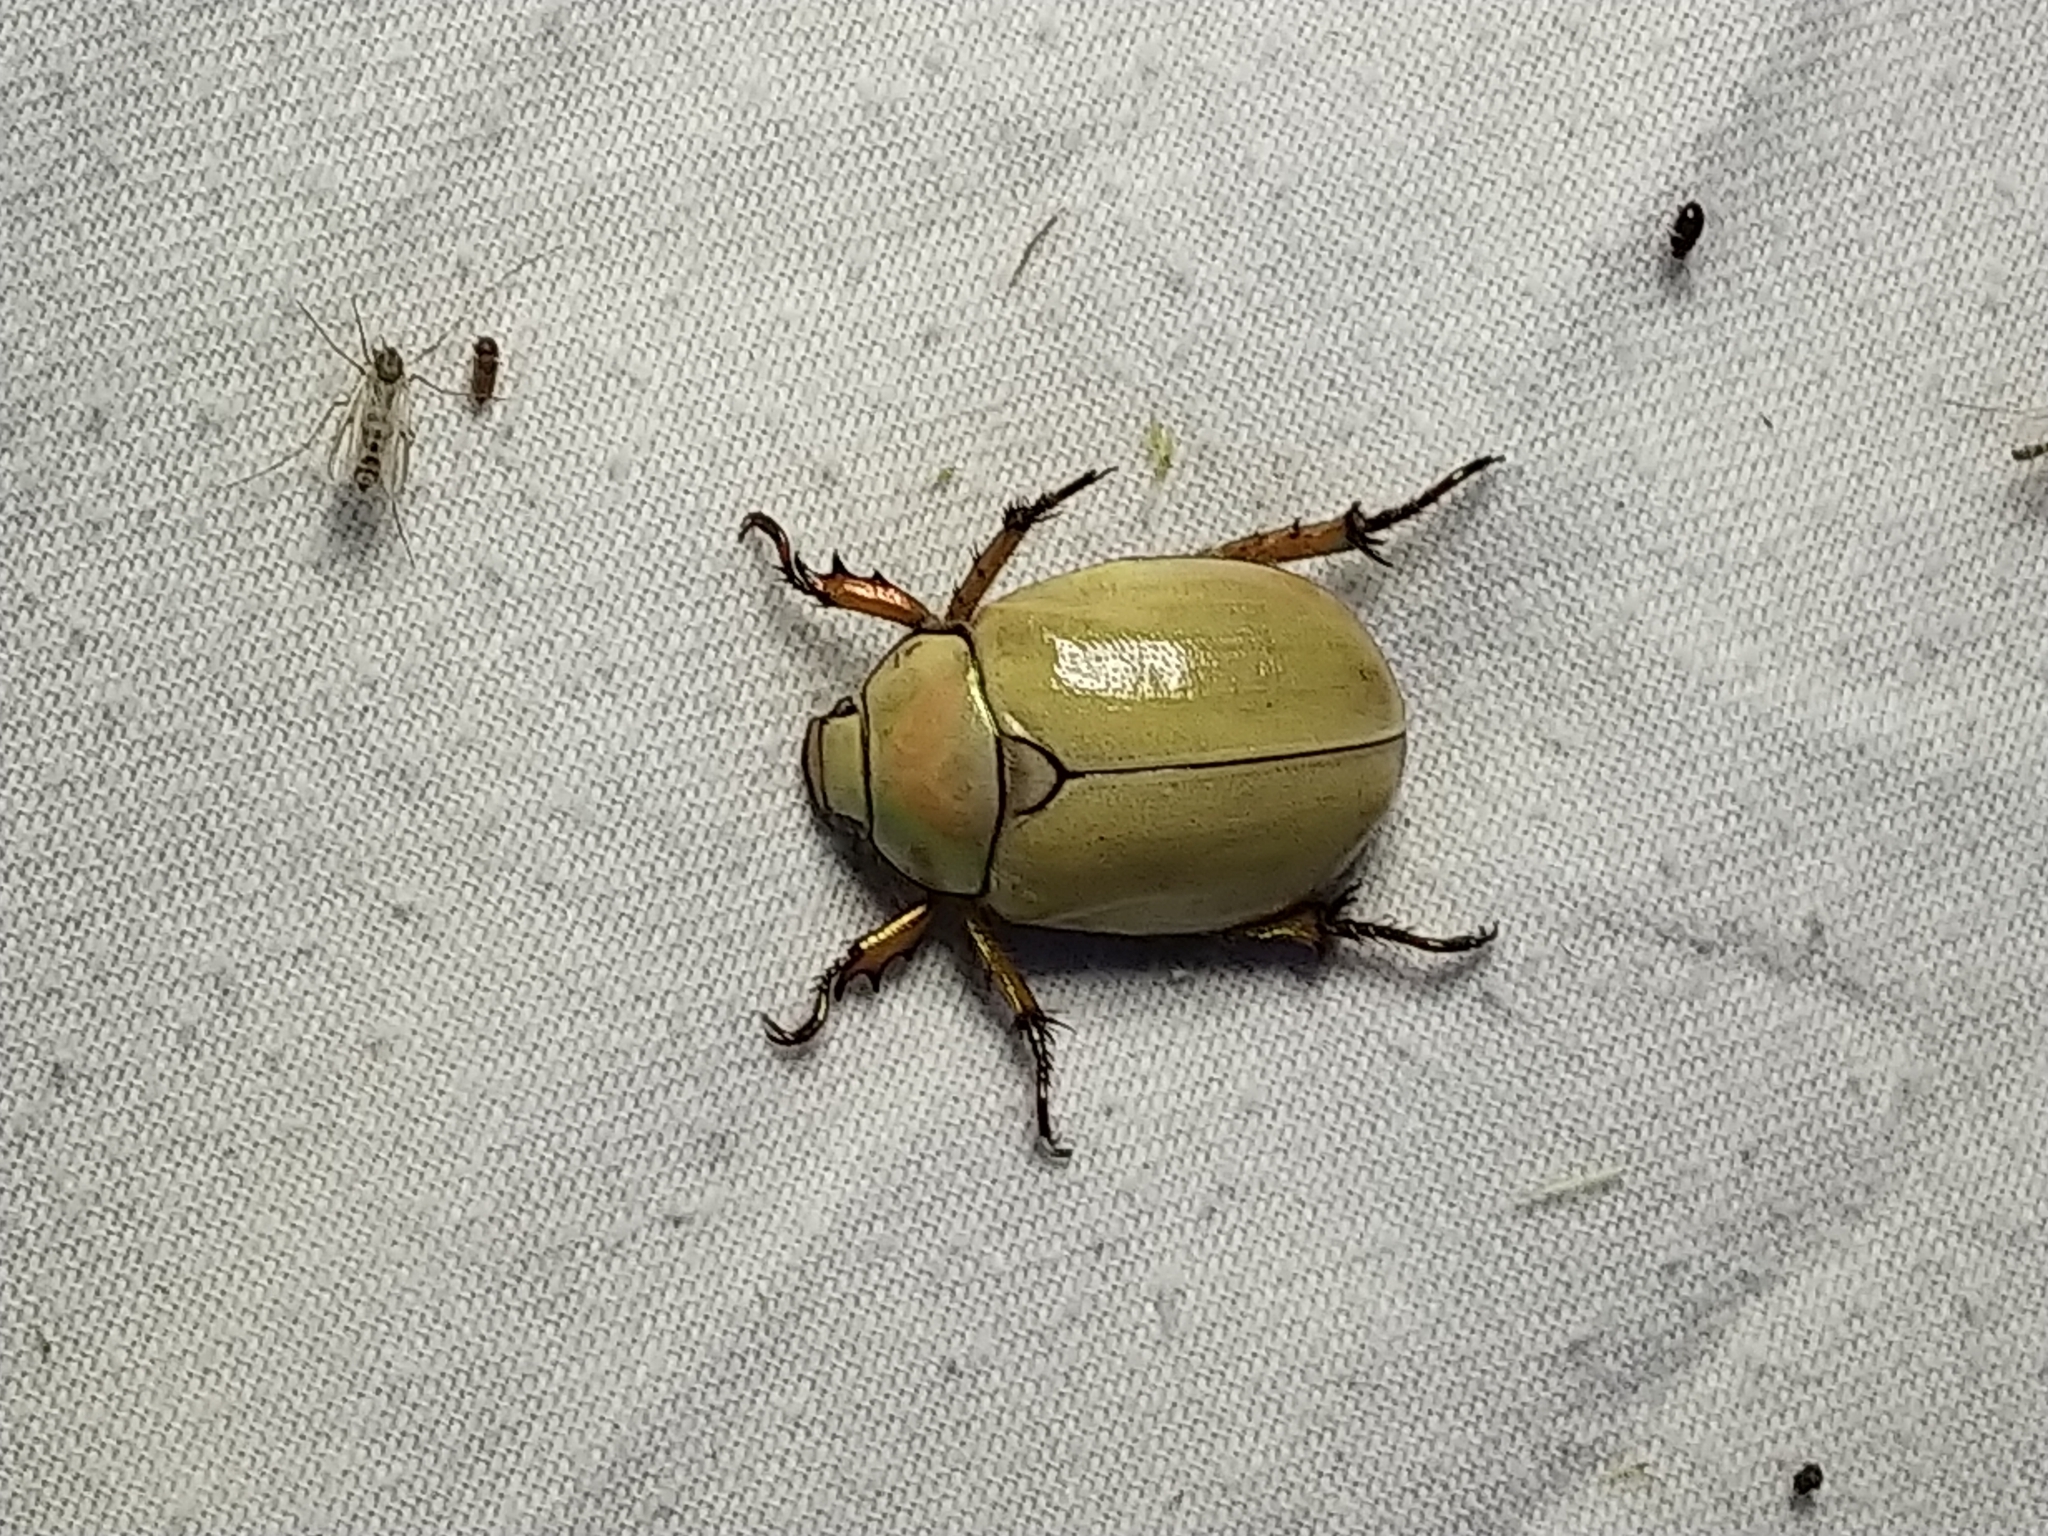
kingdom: Animalia
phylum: Arthropoda
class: Insecta
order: Coleoptera
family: Scarabaeidae
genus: Cotalpa
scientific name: Cotalpa lanigera
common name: Goldsmith beetle
